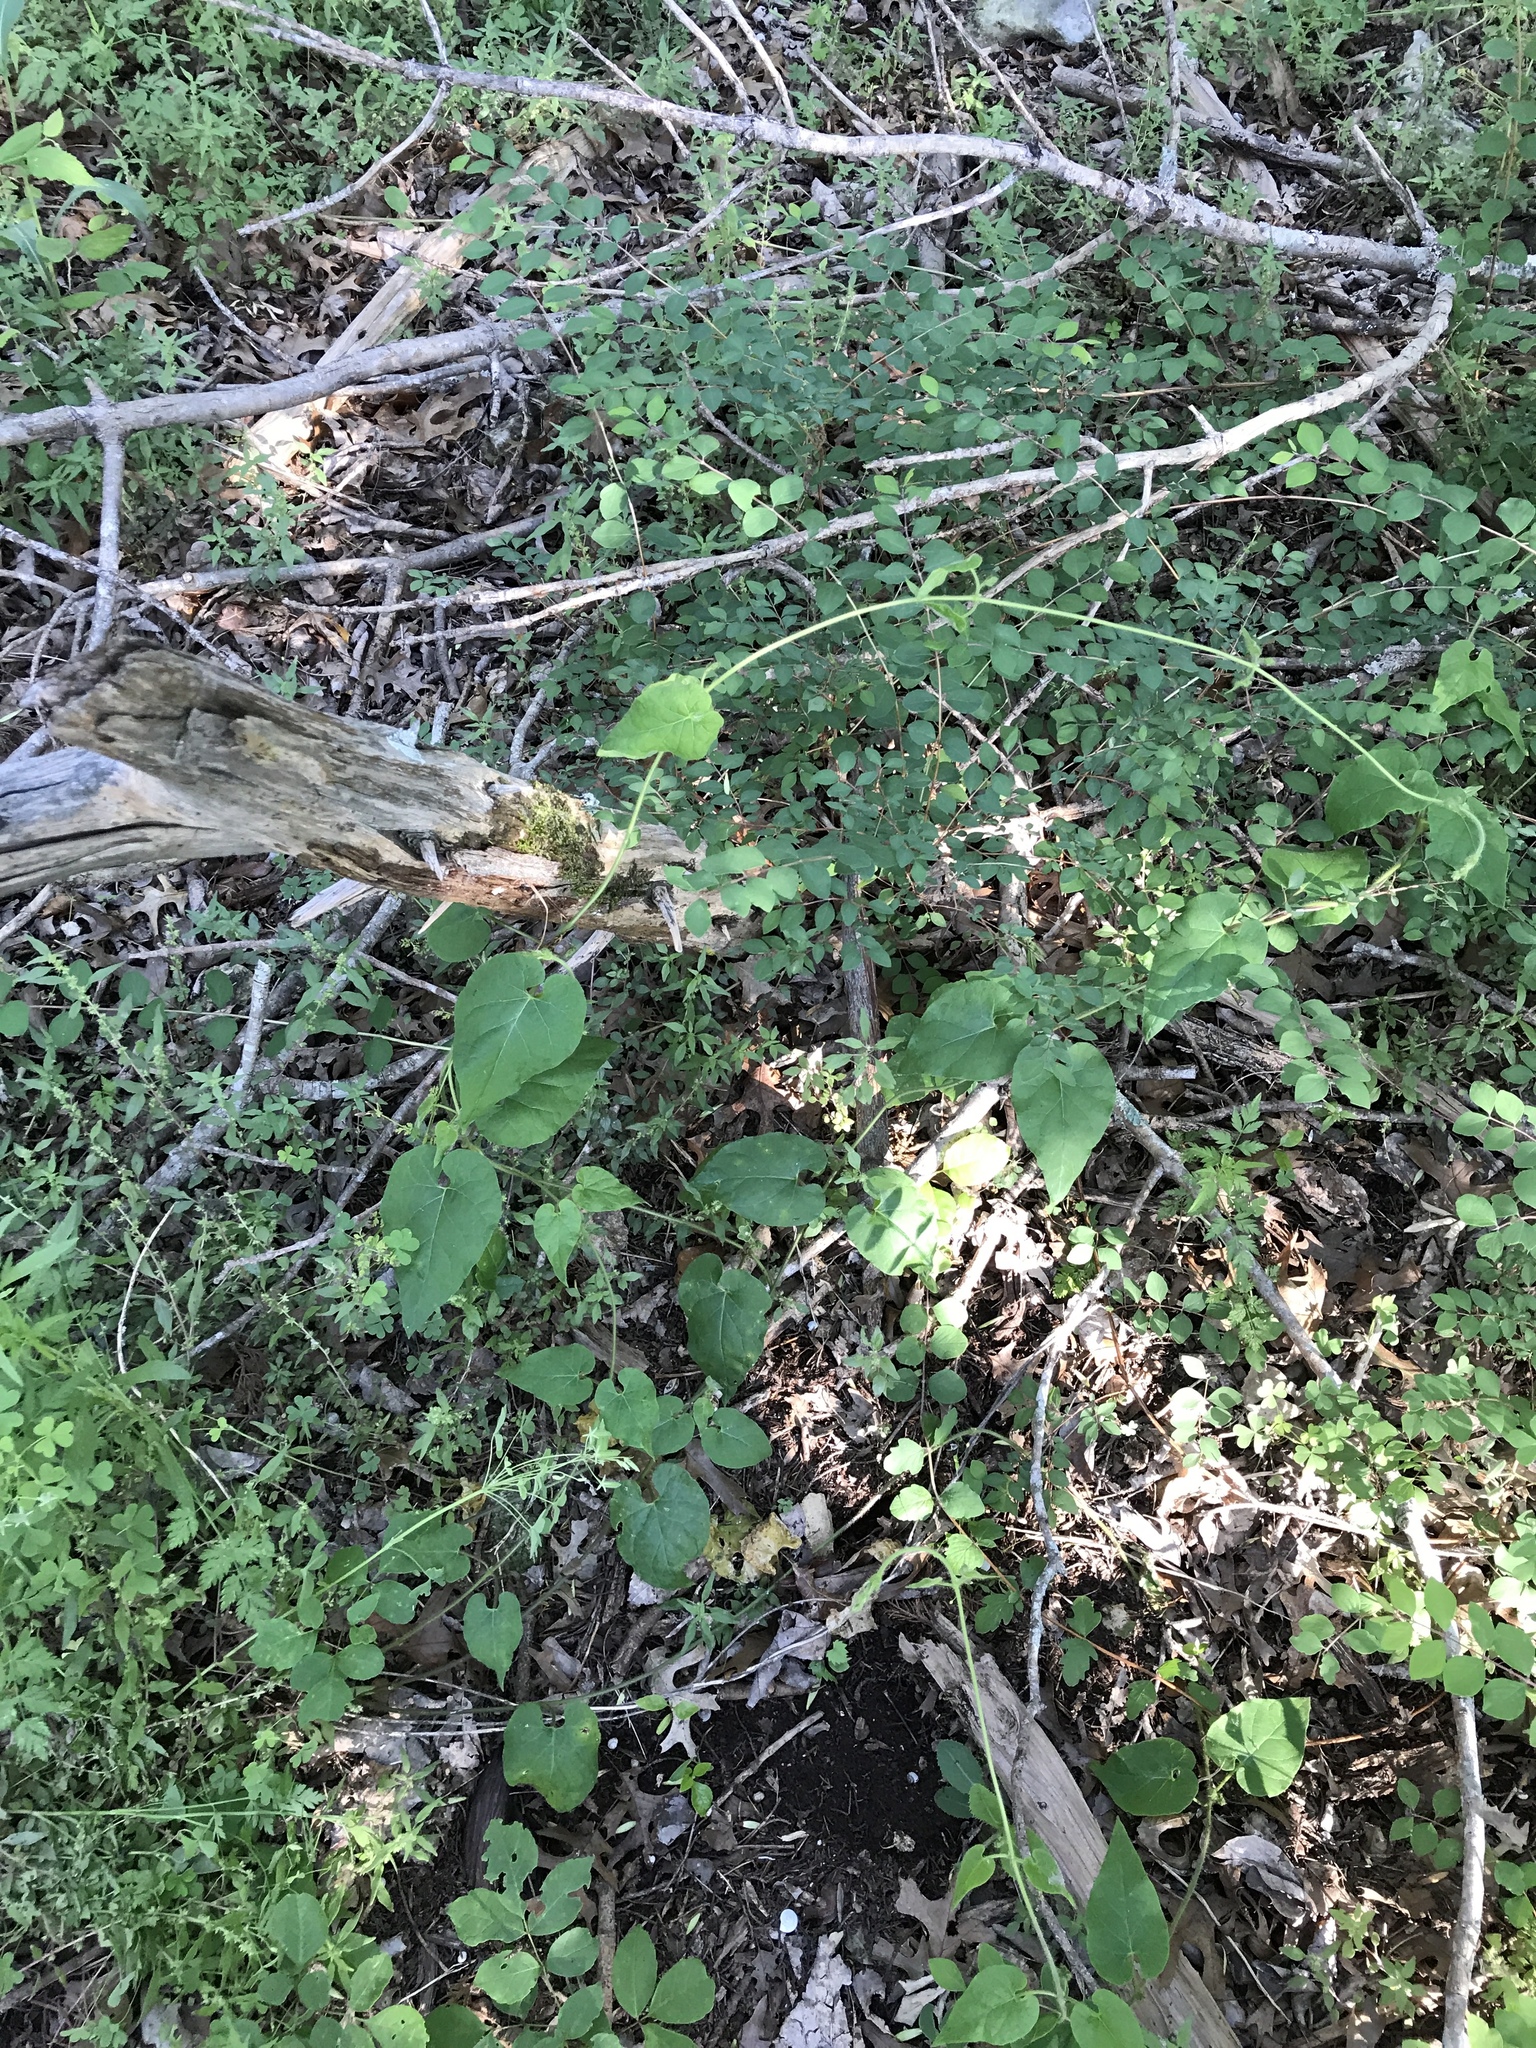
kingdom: Plantae
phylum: Tracheophyta
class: Magnoliopsida
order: Gentianales
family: Apocynaceae
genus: Dictyanthus
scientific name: Dictyanthus reticulatus
